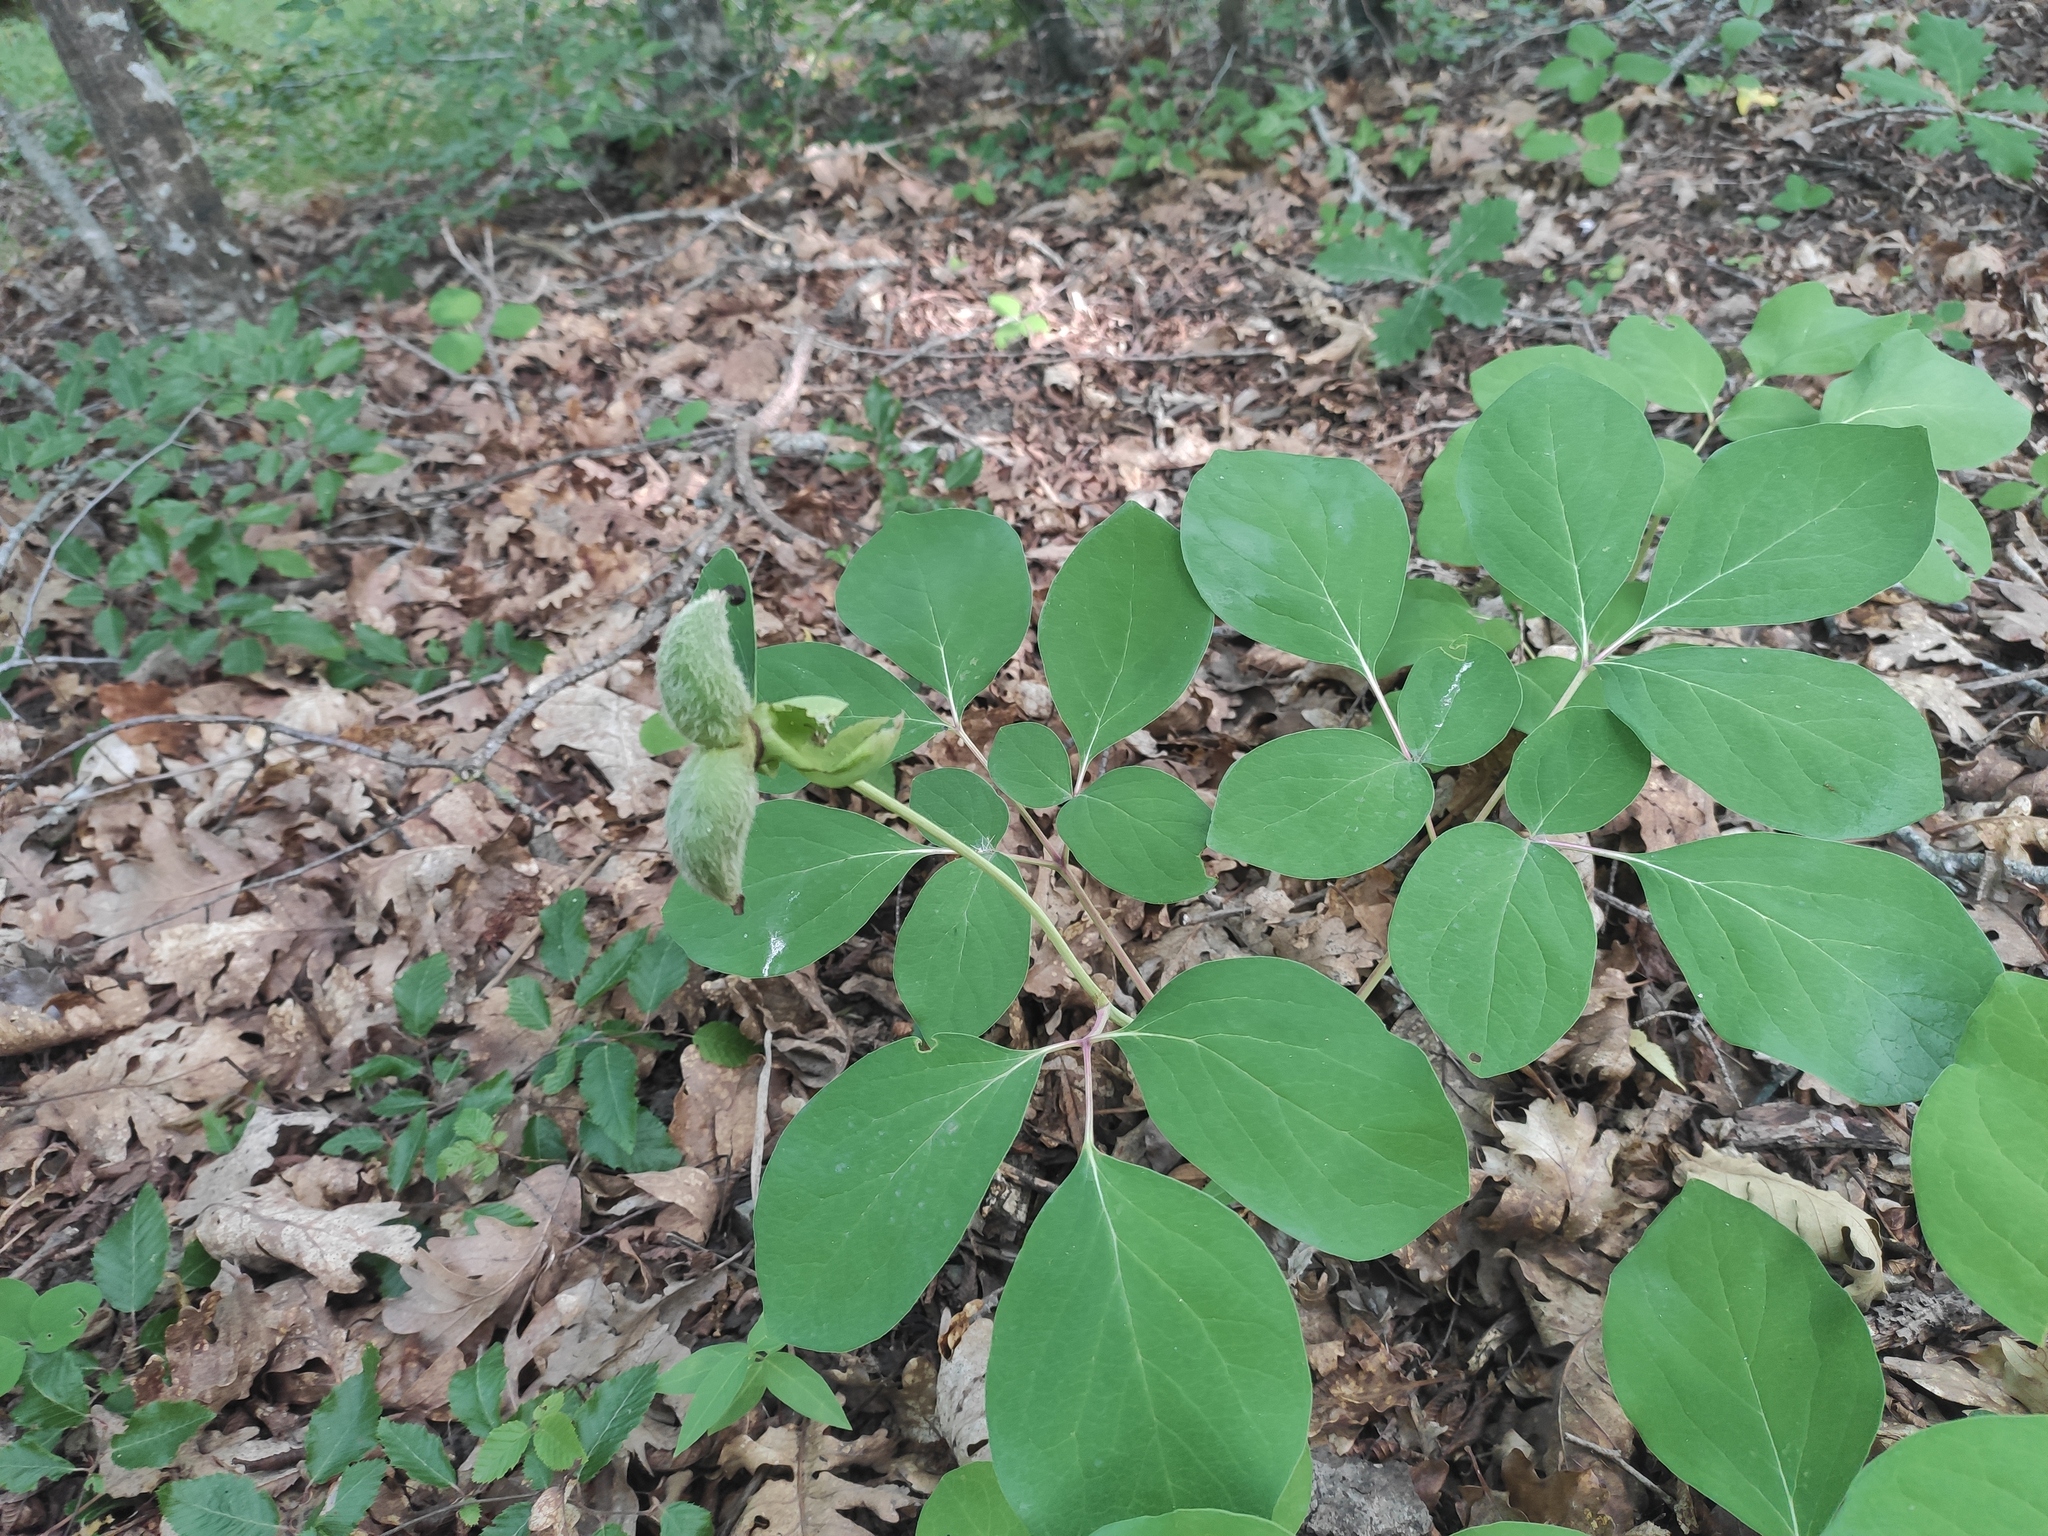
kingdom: Plantae
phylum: Tracheophyta
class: Magnoliopsida
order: Saxifragales
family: Paeoniaceae
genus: Paeonia
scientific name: Paeonia caucasica
